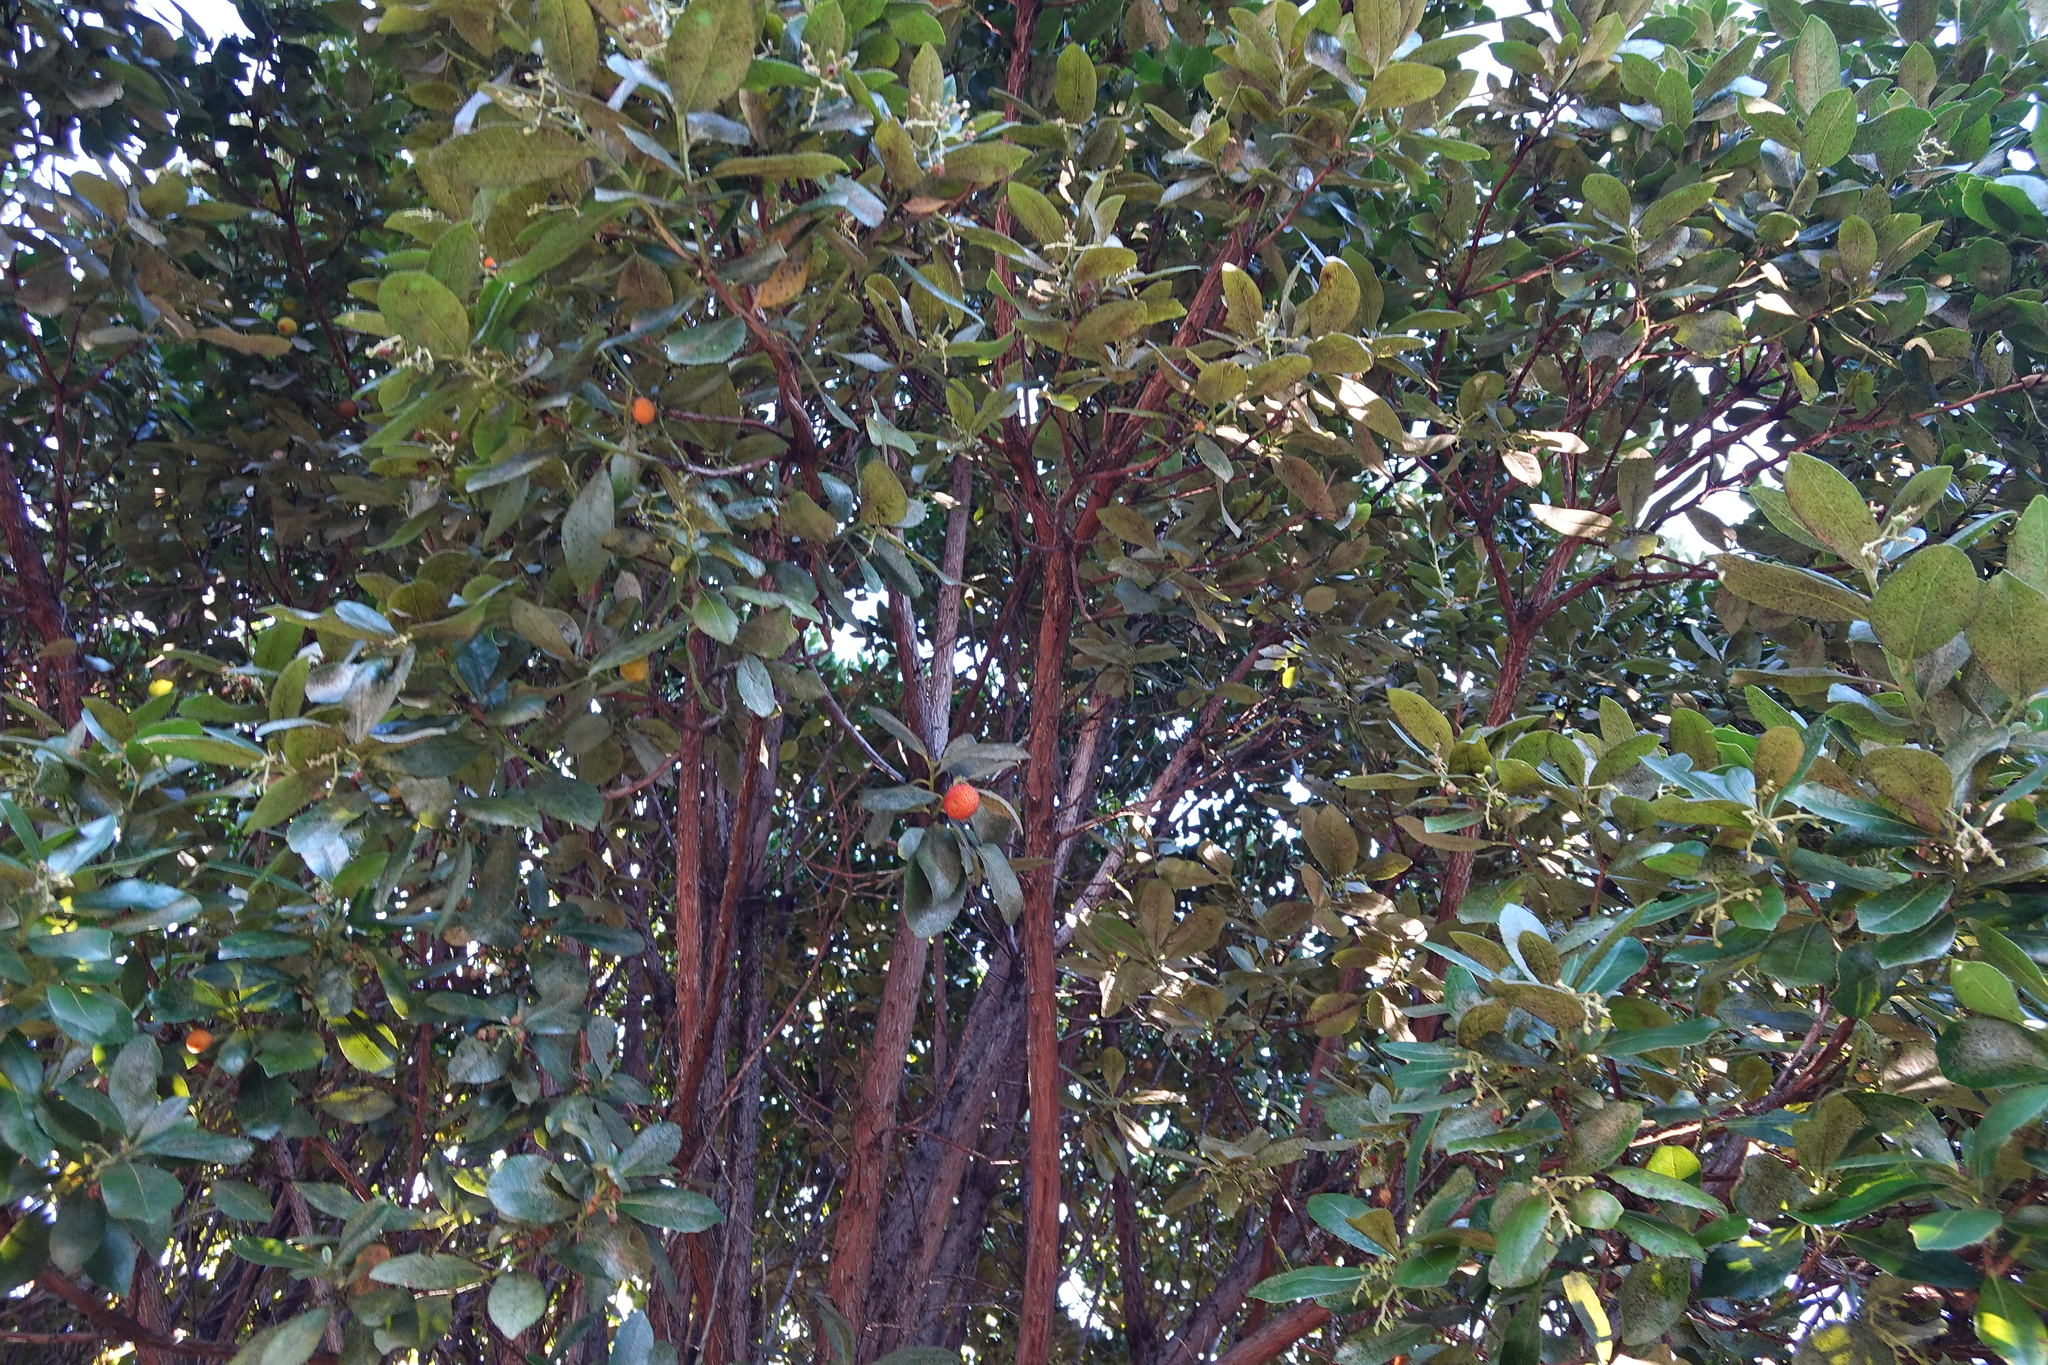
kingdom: Plantae
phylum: Tracheophyta
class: Magnoliopsida
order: Ericales
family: Ericaceae
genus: Arbutus
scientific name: Arbutus unedo
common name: Strawberry-tree
